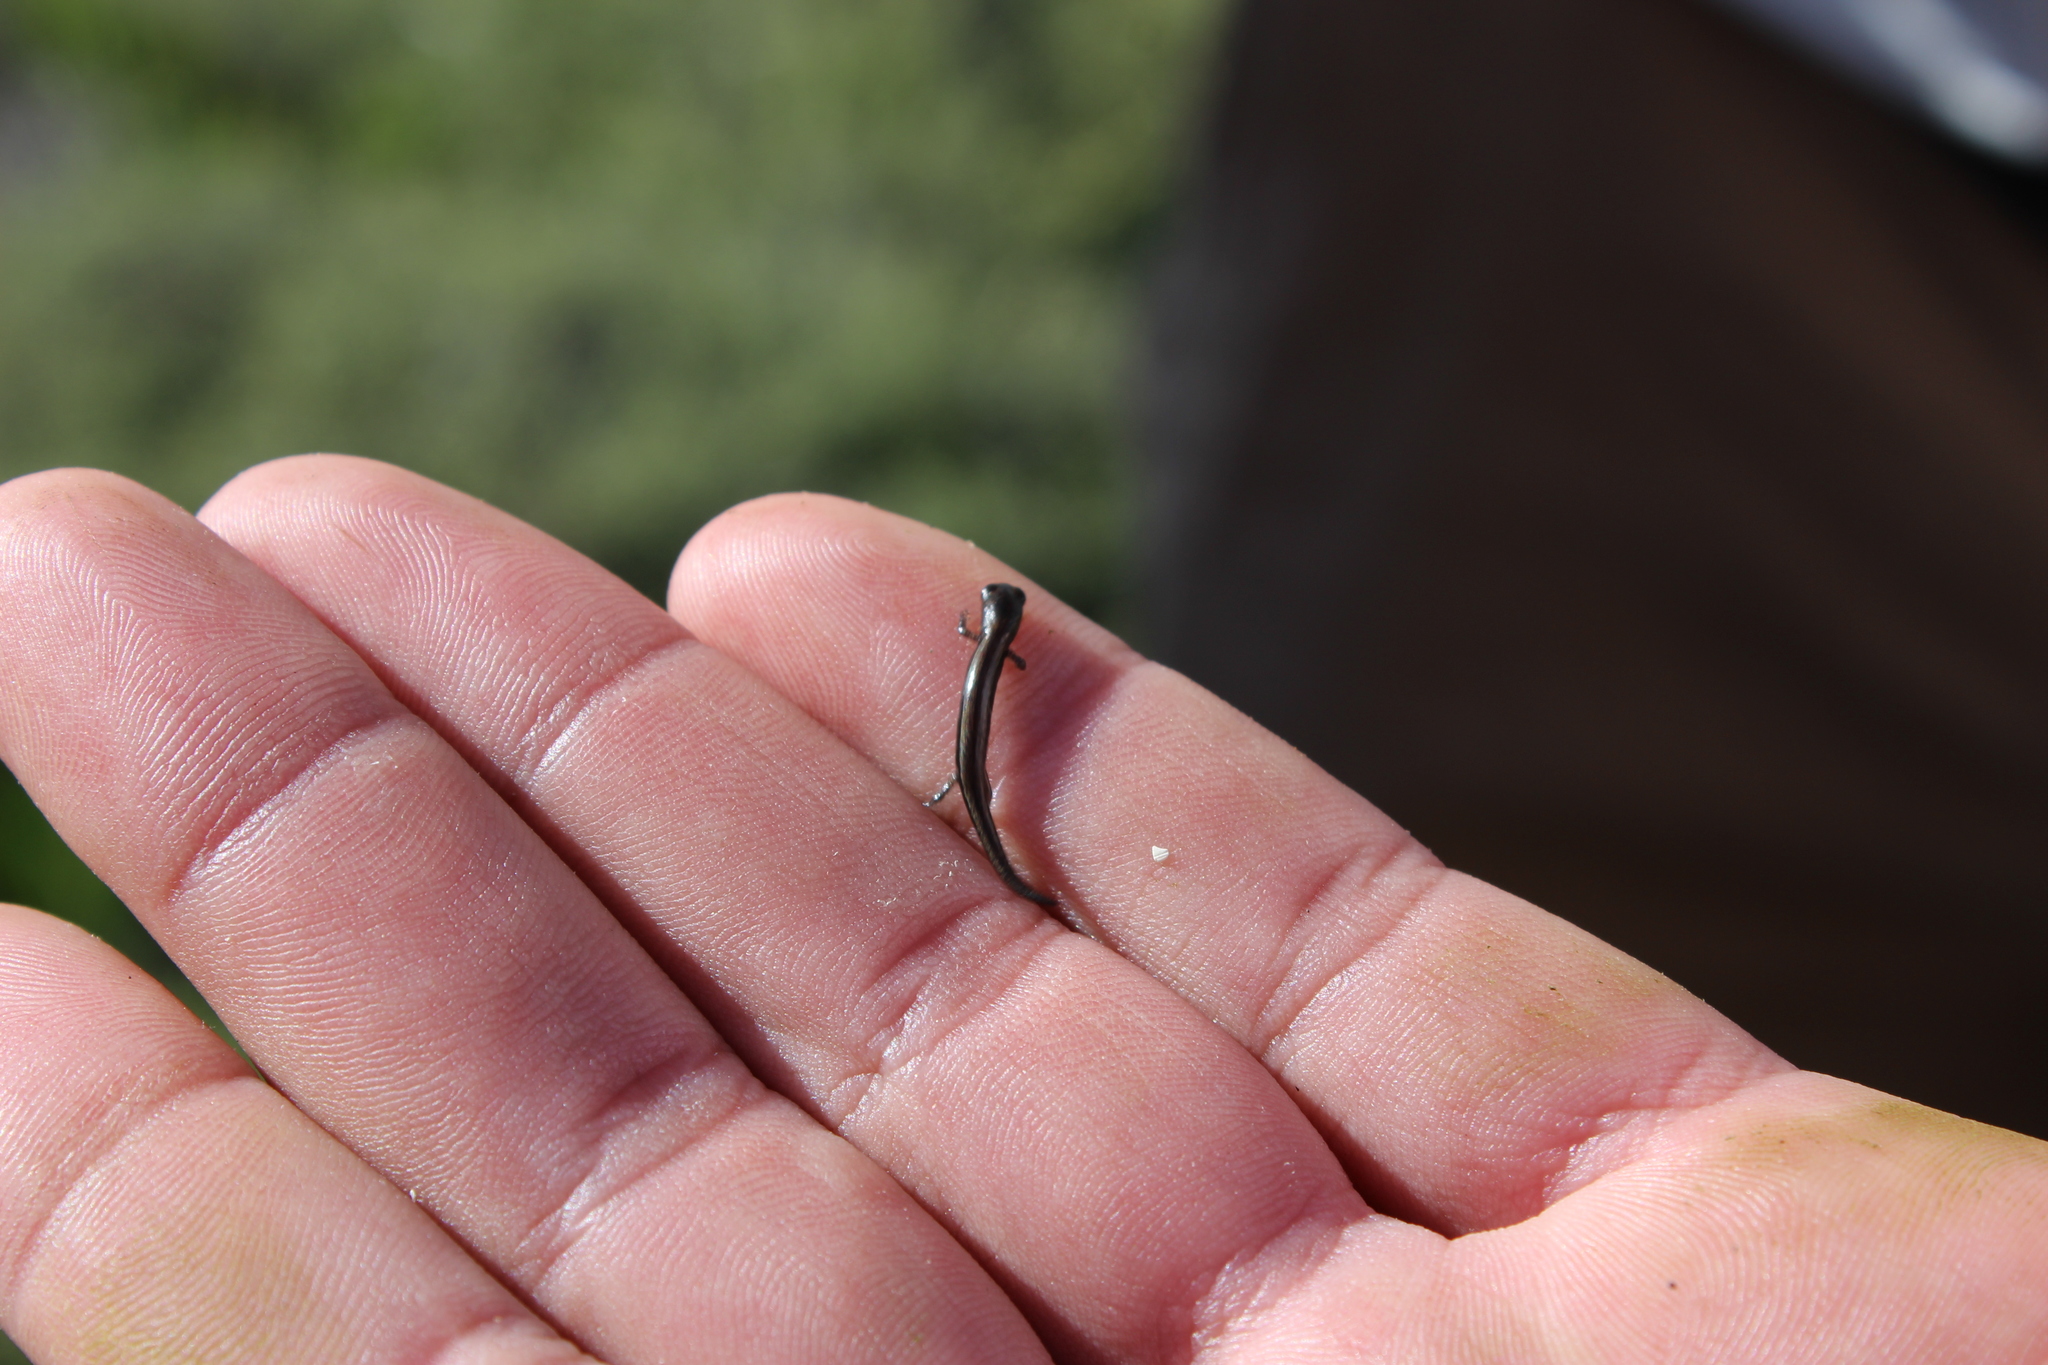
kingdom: Animalia
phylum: Chordata
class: Amphibia
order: Caudata
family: Plethodontidae
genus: Batrachoseps
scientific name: Batrachoseps attenuatus
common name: California slender salamander
